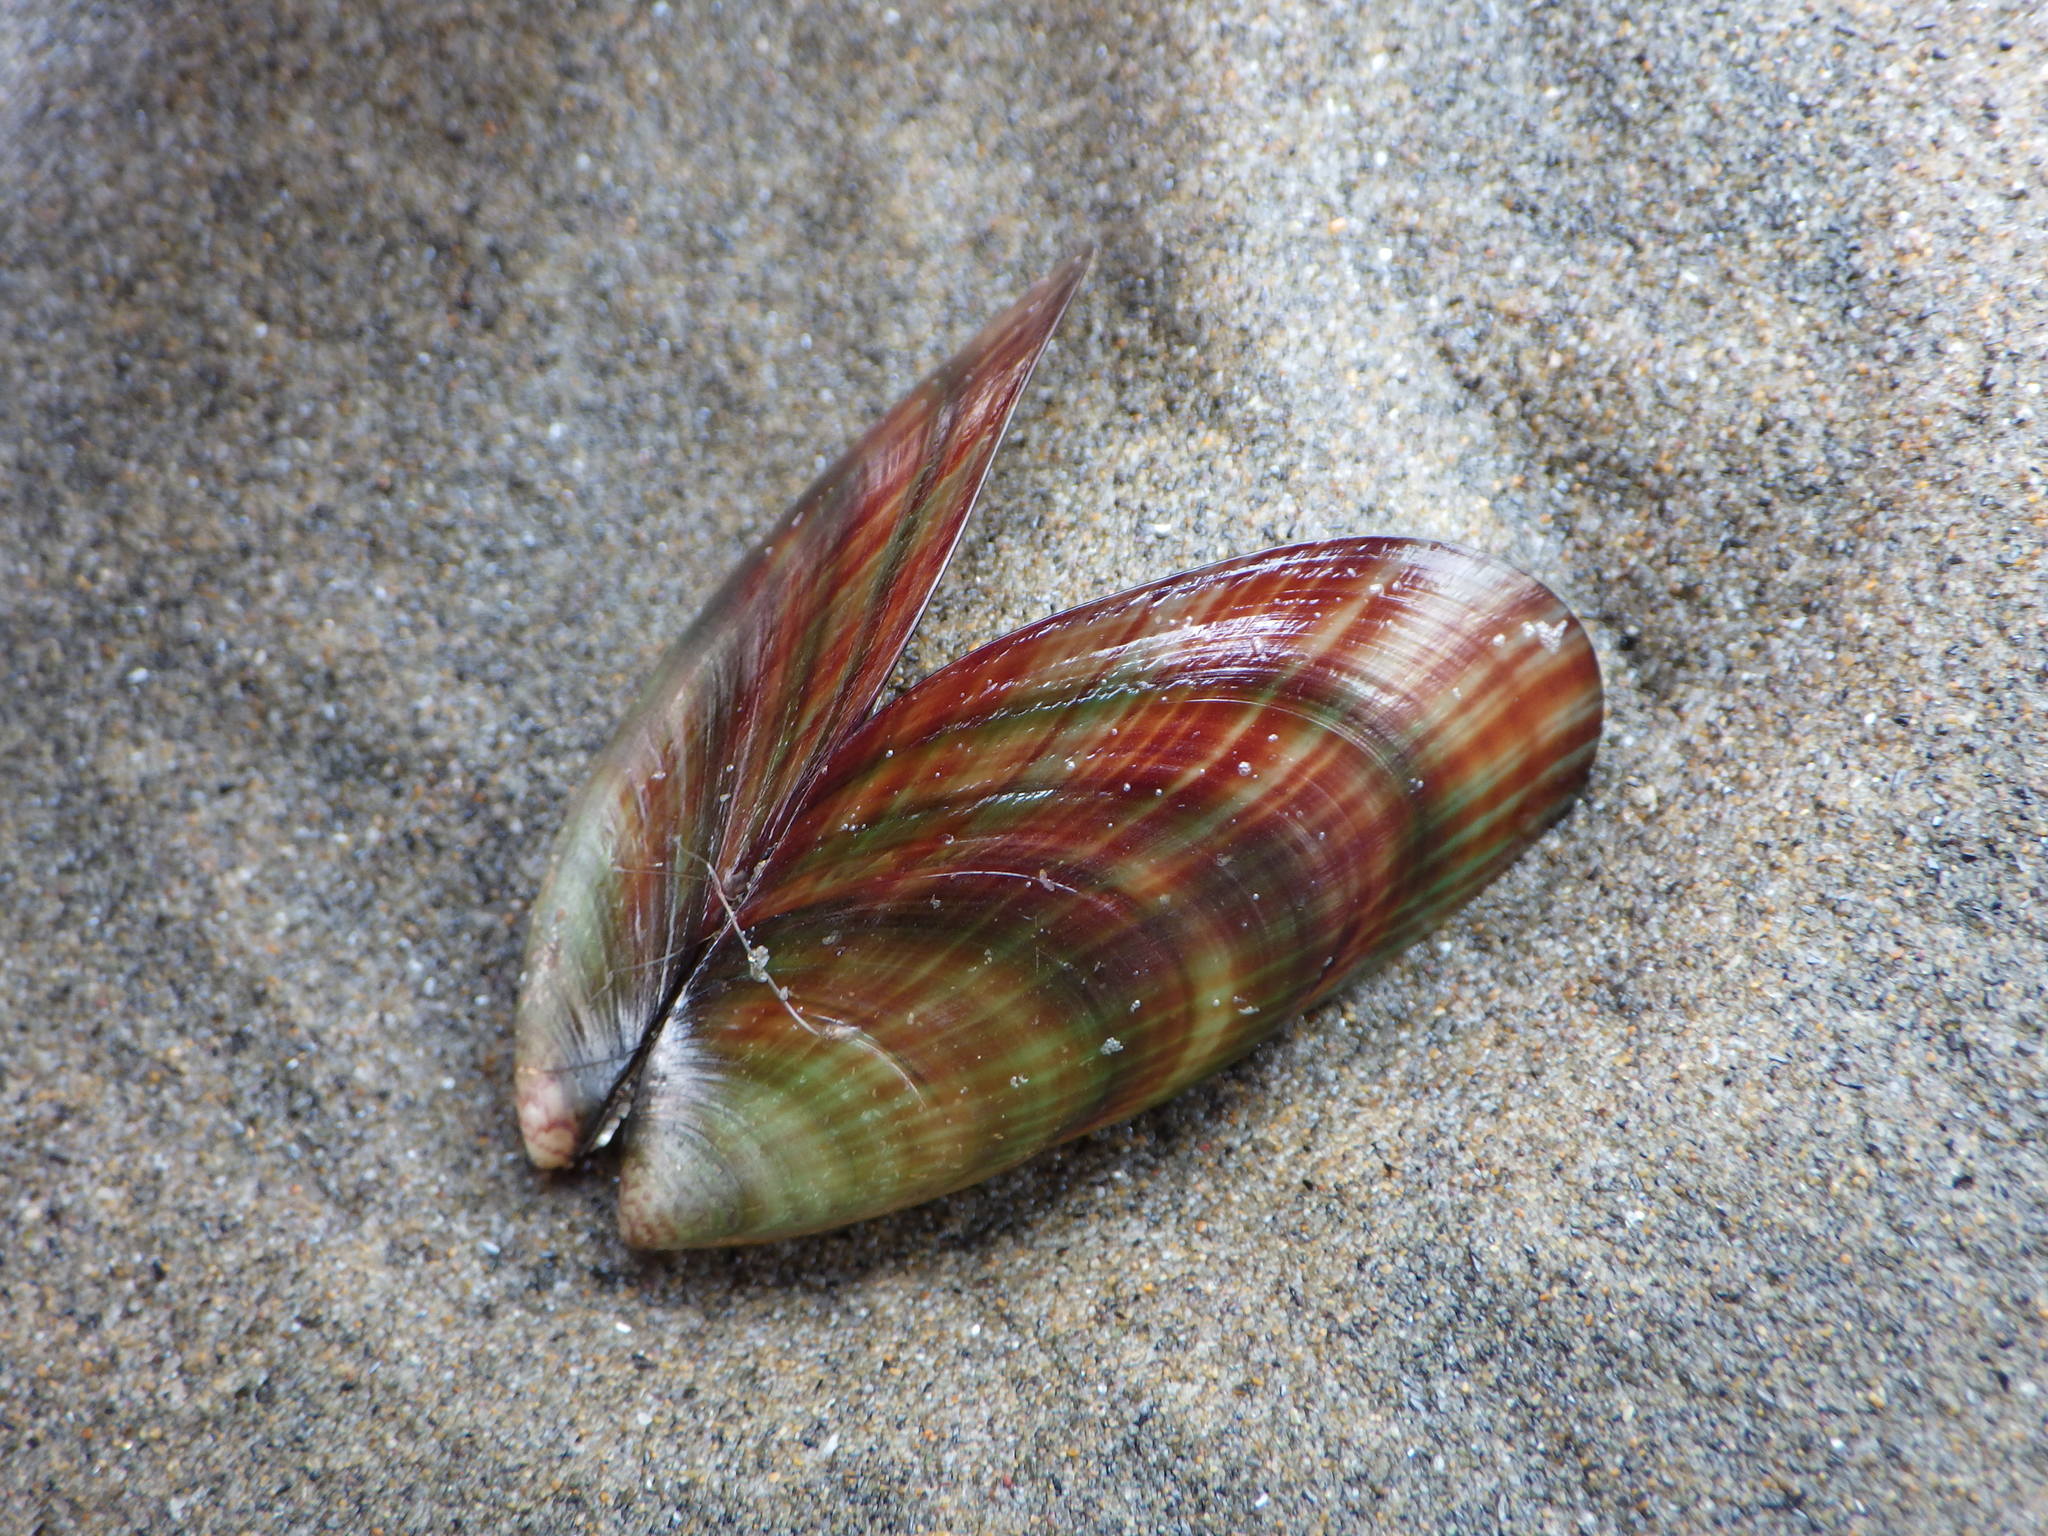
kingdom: Animalia
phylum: Mollusca
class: Bivalvia
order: Mytilida
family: Mytilidae
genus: Perna
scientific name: Perna canaliculus
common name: New zealand greenshelltm
